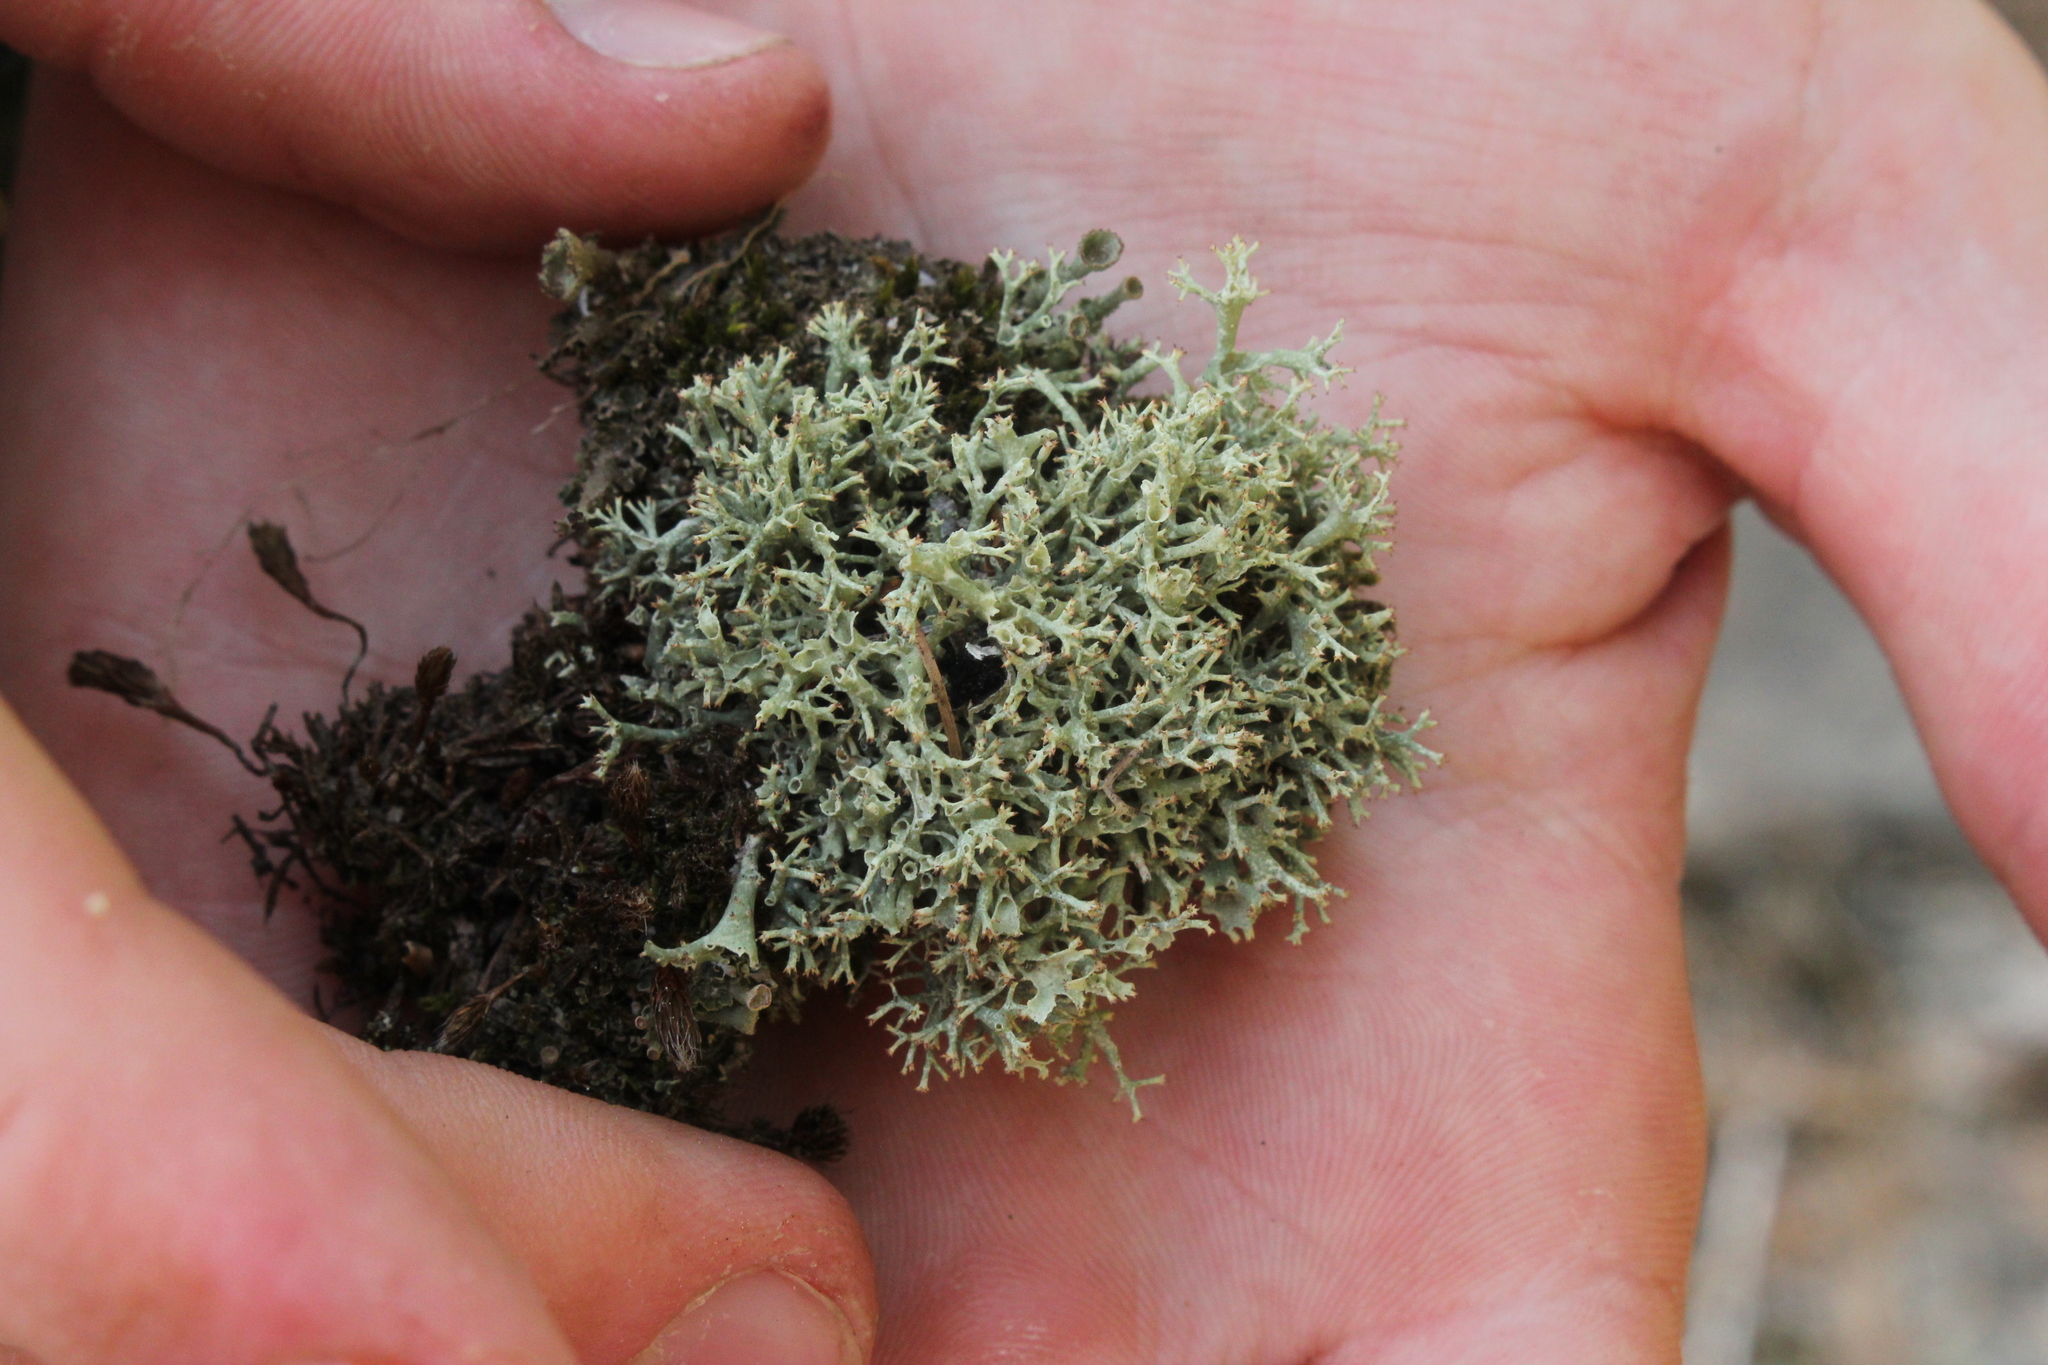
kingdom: Fungi
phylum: Ascomycota
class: Lecanoromycetes
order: Lecanorales
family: Cladoniaceae
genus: Cladonia
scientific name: Cladonia uncialis
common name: Thorn lichen
